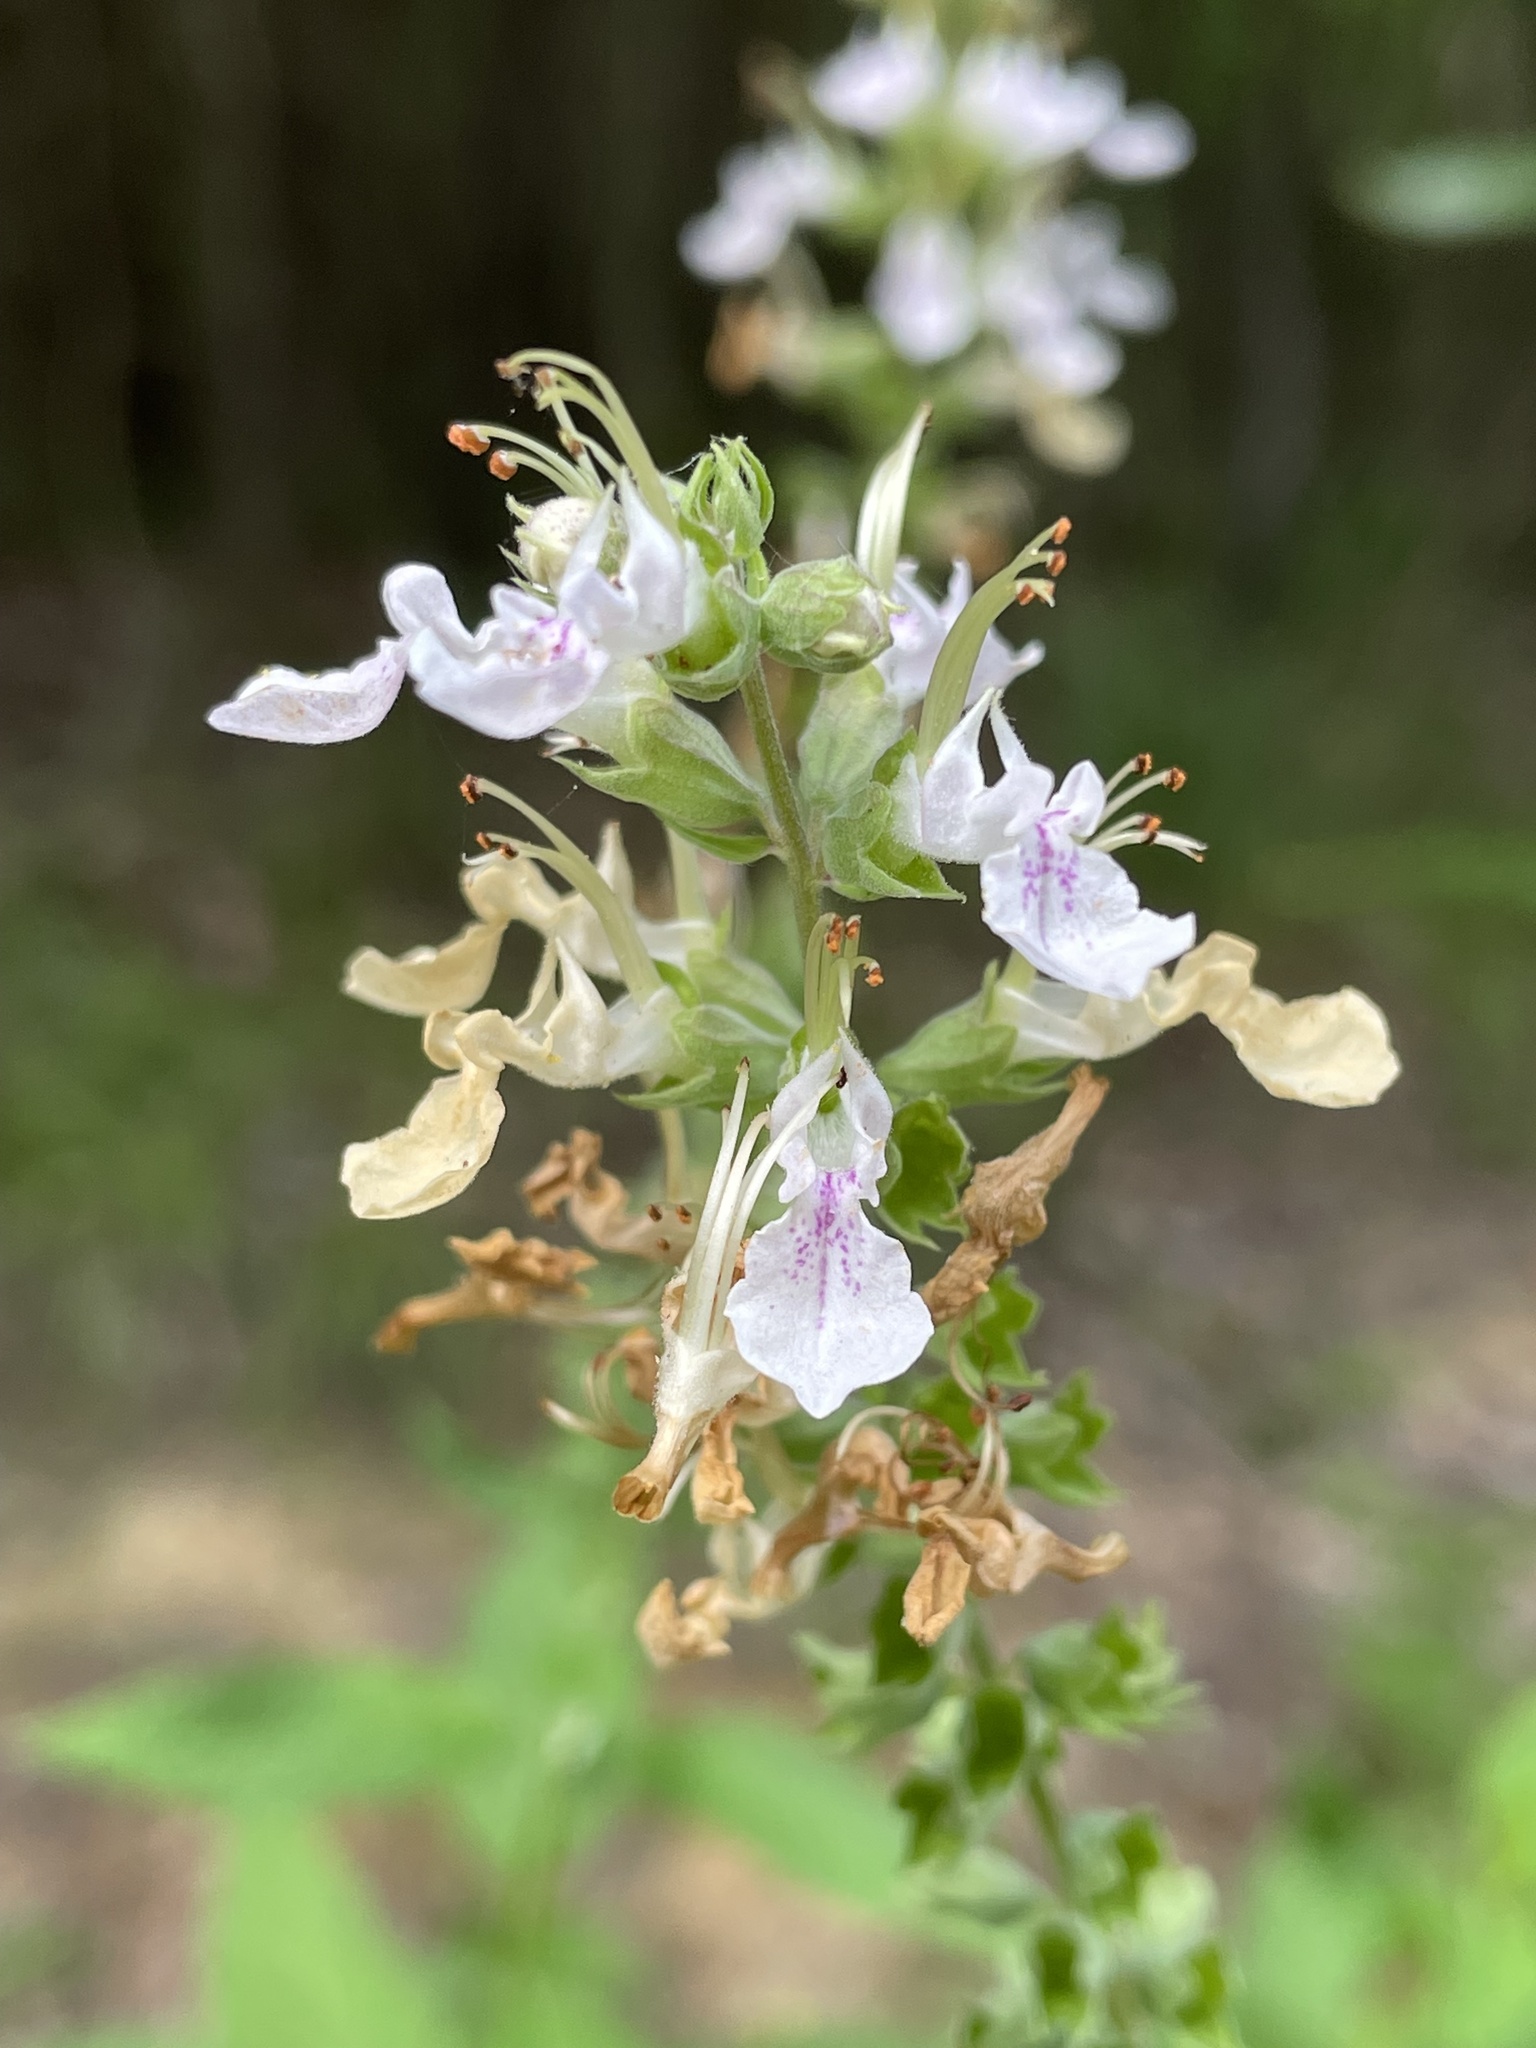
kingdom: Plantae
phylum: Tracheophyta
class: Magnoliopsida
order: Lamiales
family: Lamiaceae
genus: Teucrium
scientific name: Teucrium canadense
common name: American germander
